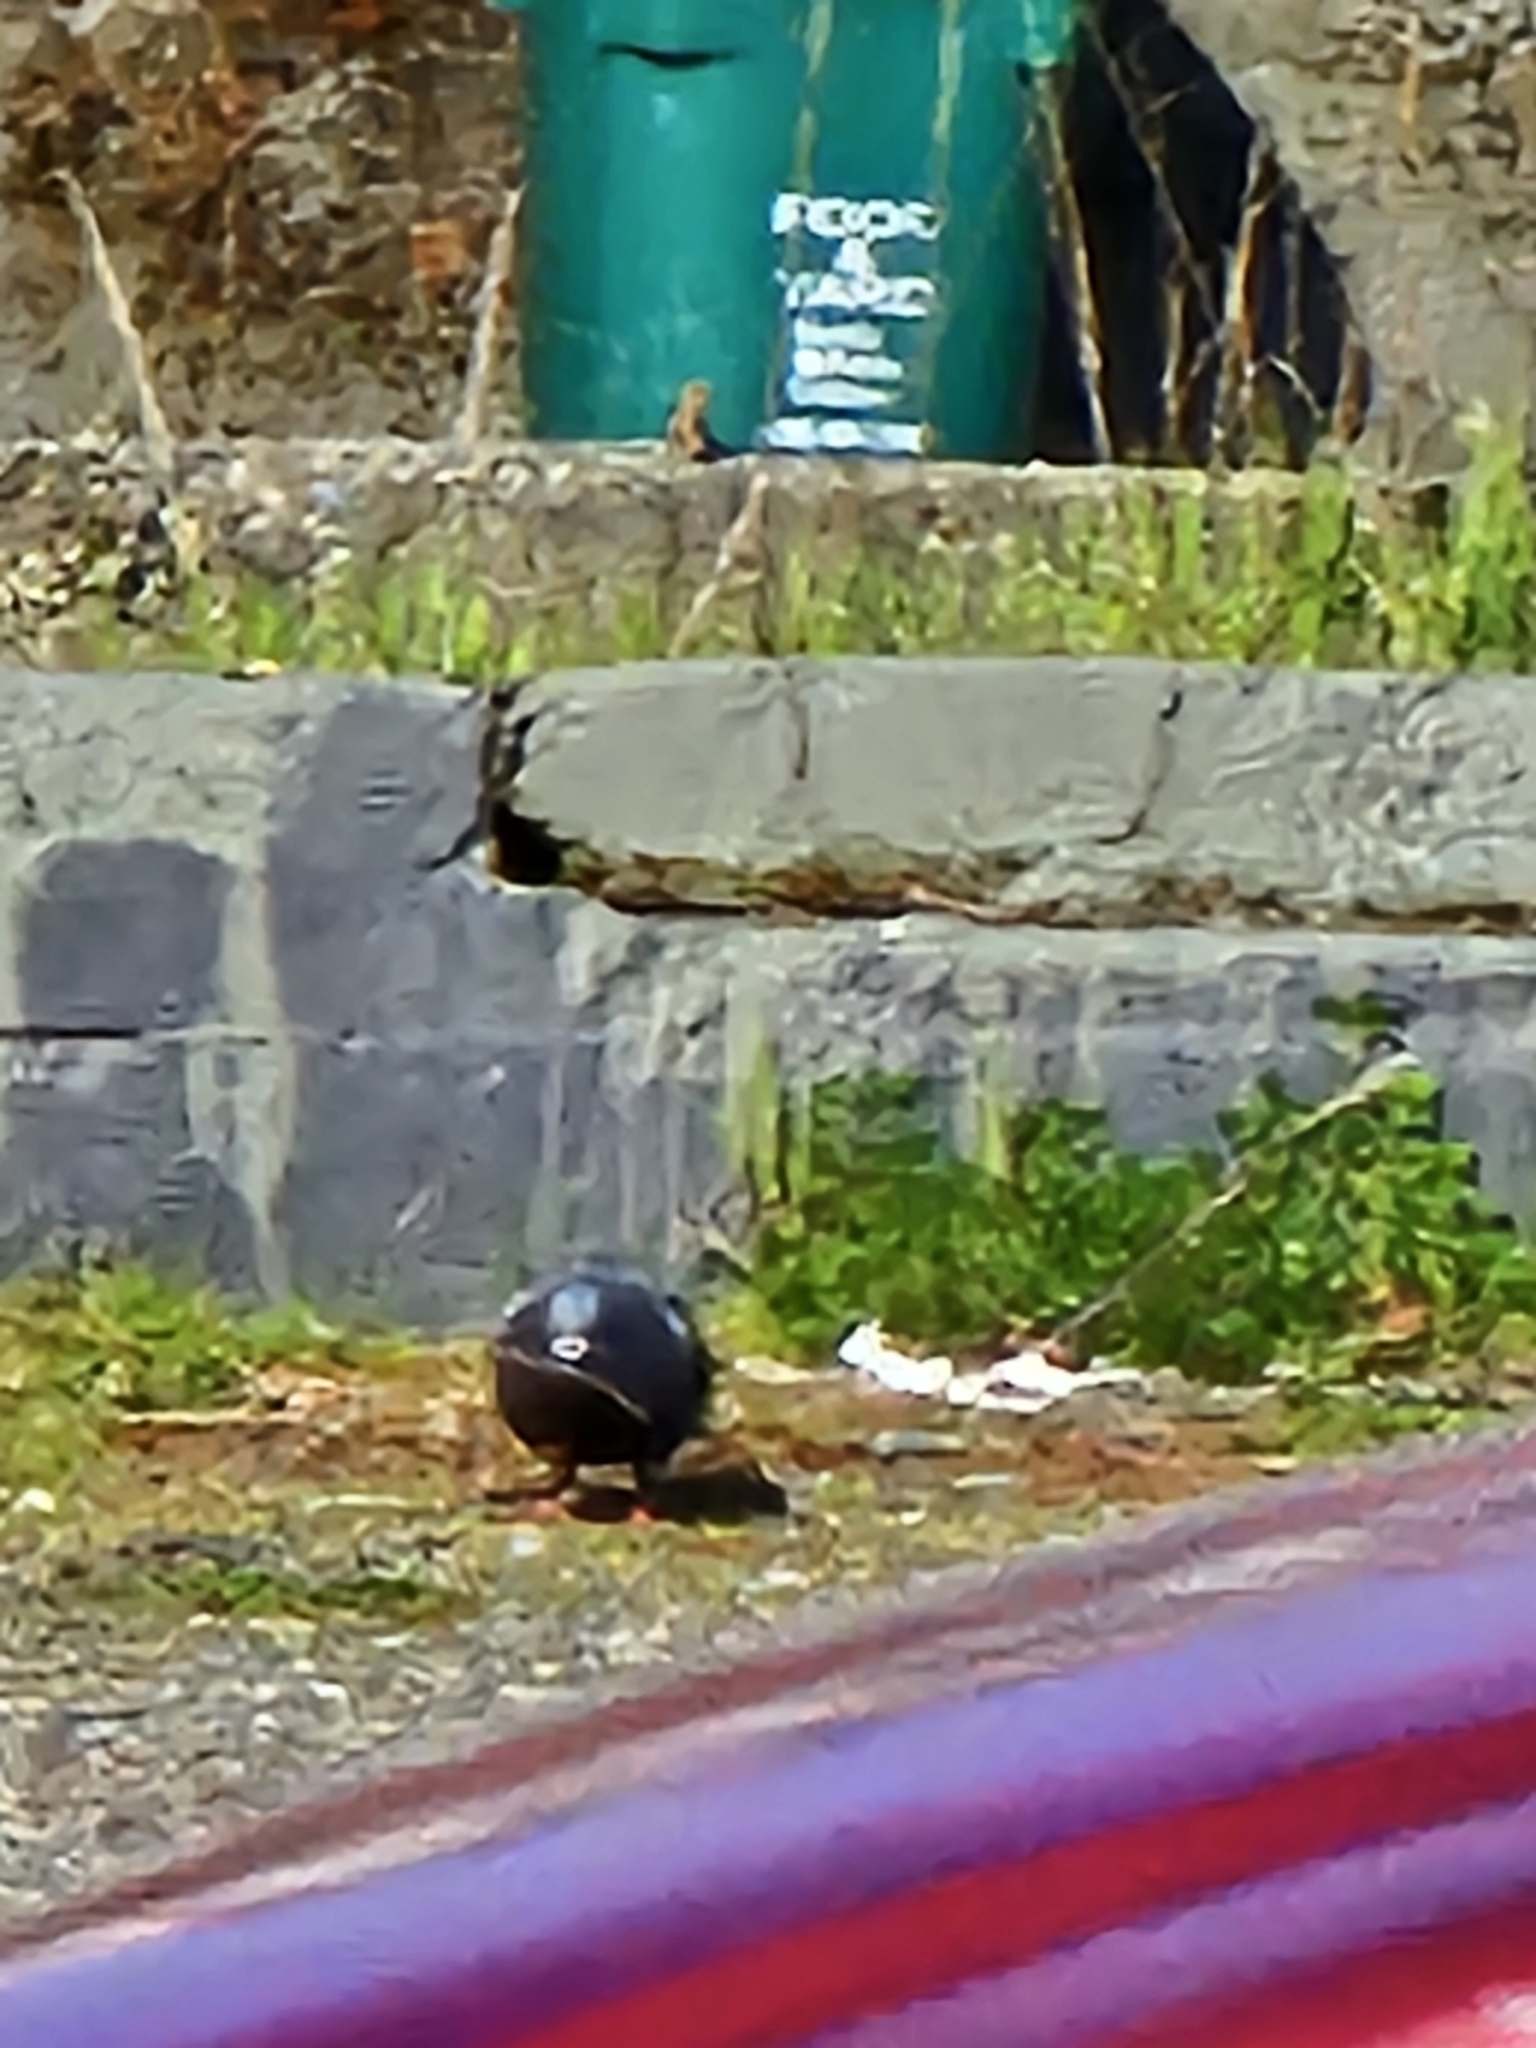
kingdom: Animalia
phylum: Chordata
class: Aves
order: Columbiformes
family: Columbidae
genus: Columba
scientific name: Columba livia
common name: Rock pigeon
